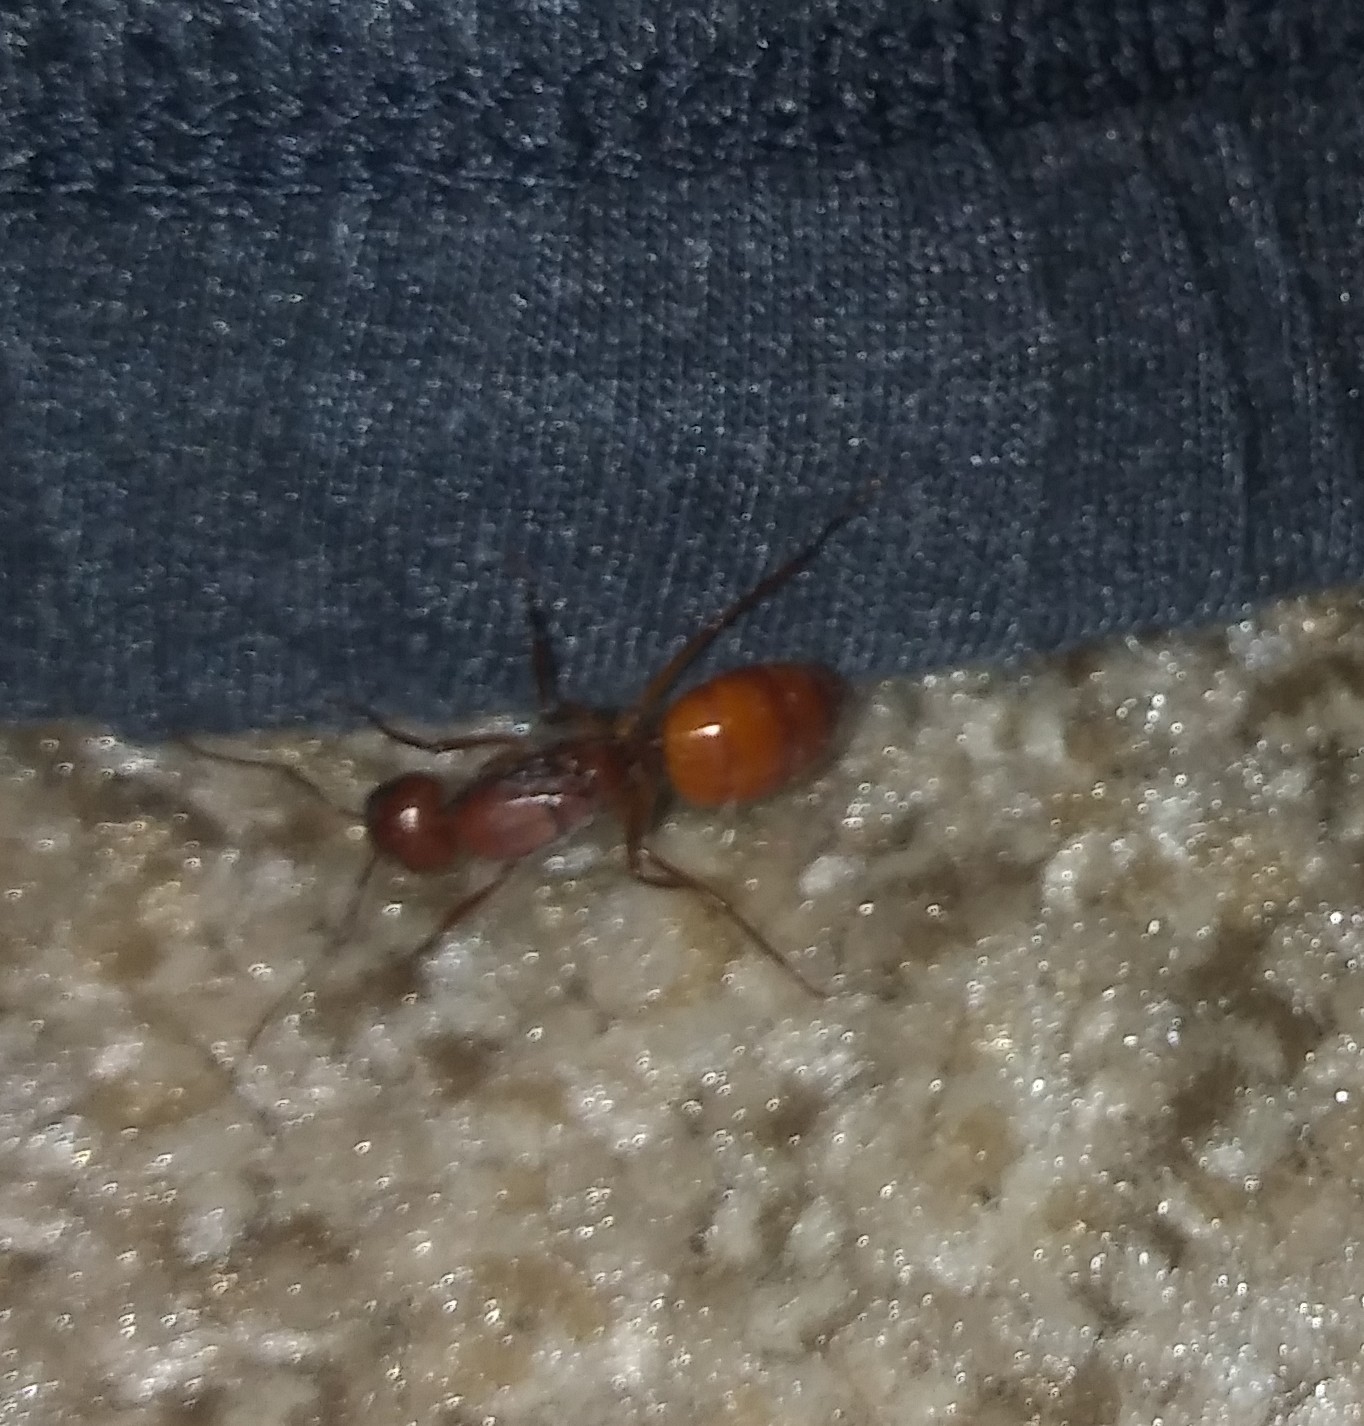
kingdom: Animalia
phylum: Arthropoda
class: Insecta
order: Hymenoptera
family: Formicidae
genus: Camponotus
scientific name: Camponotus castaneus
